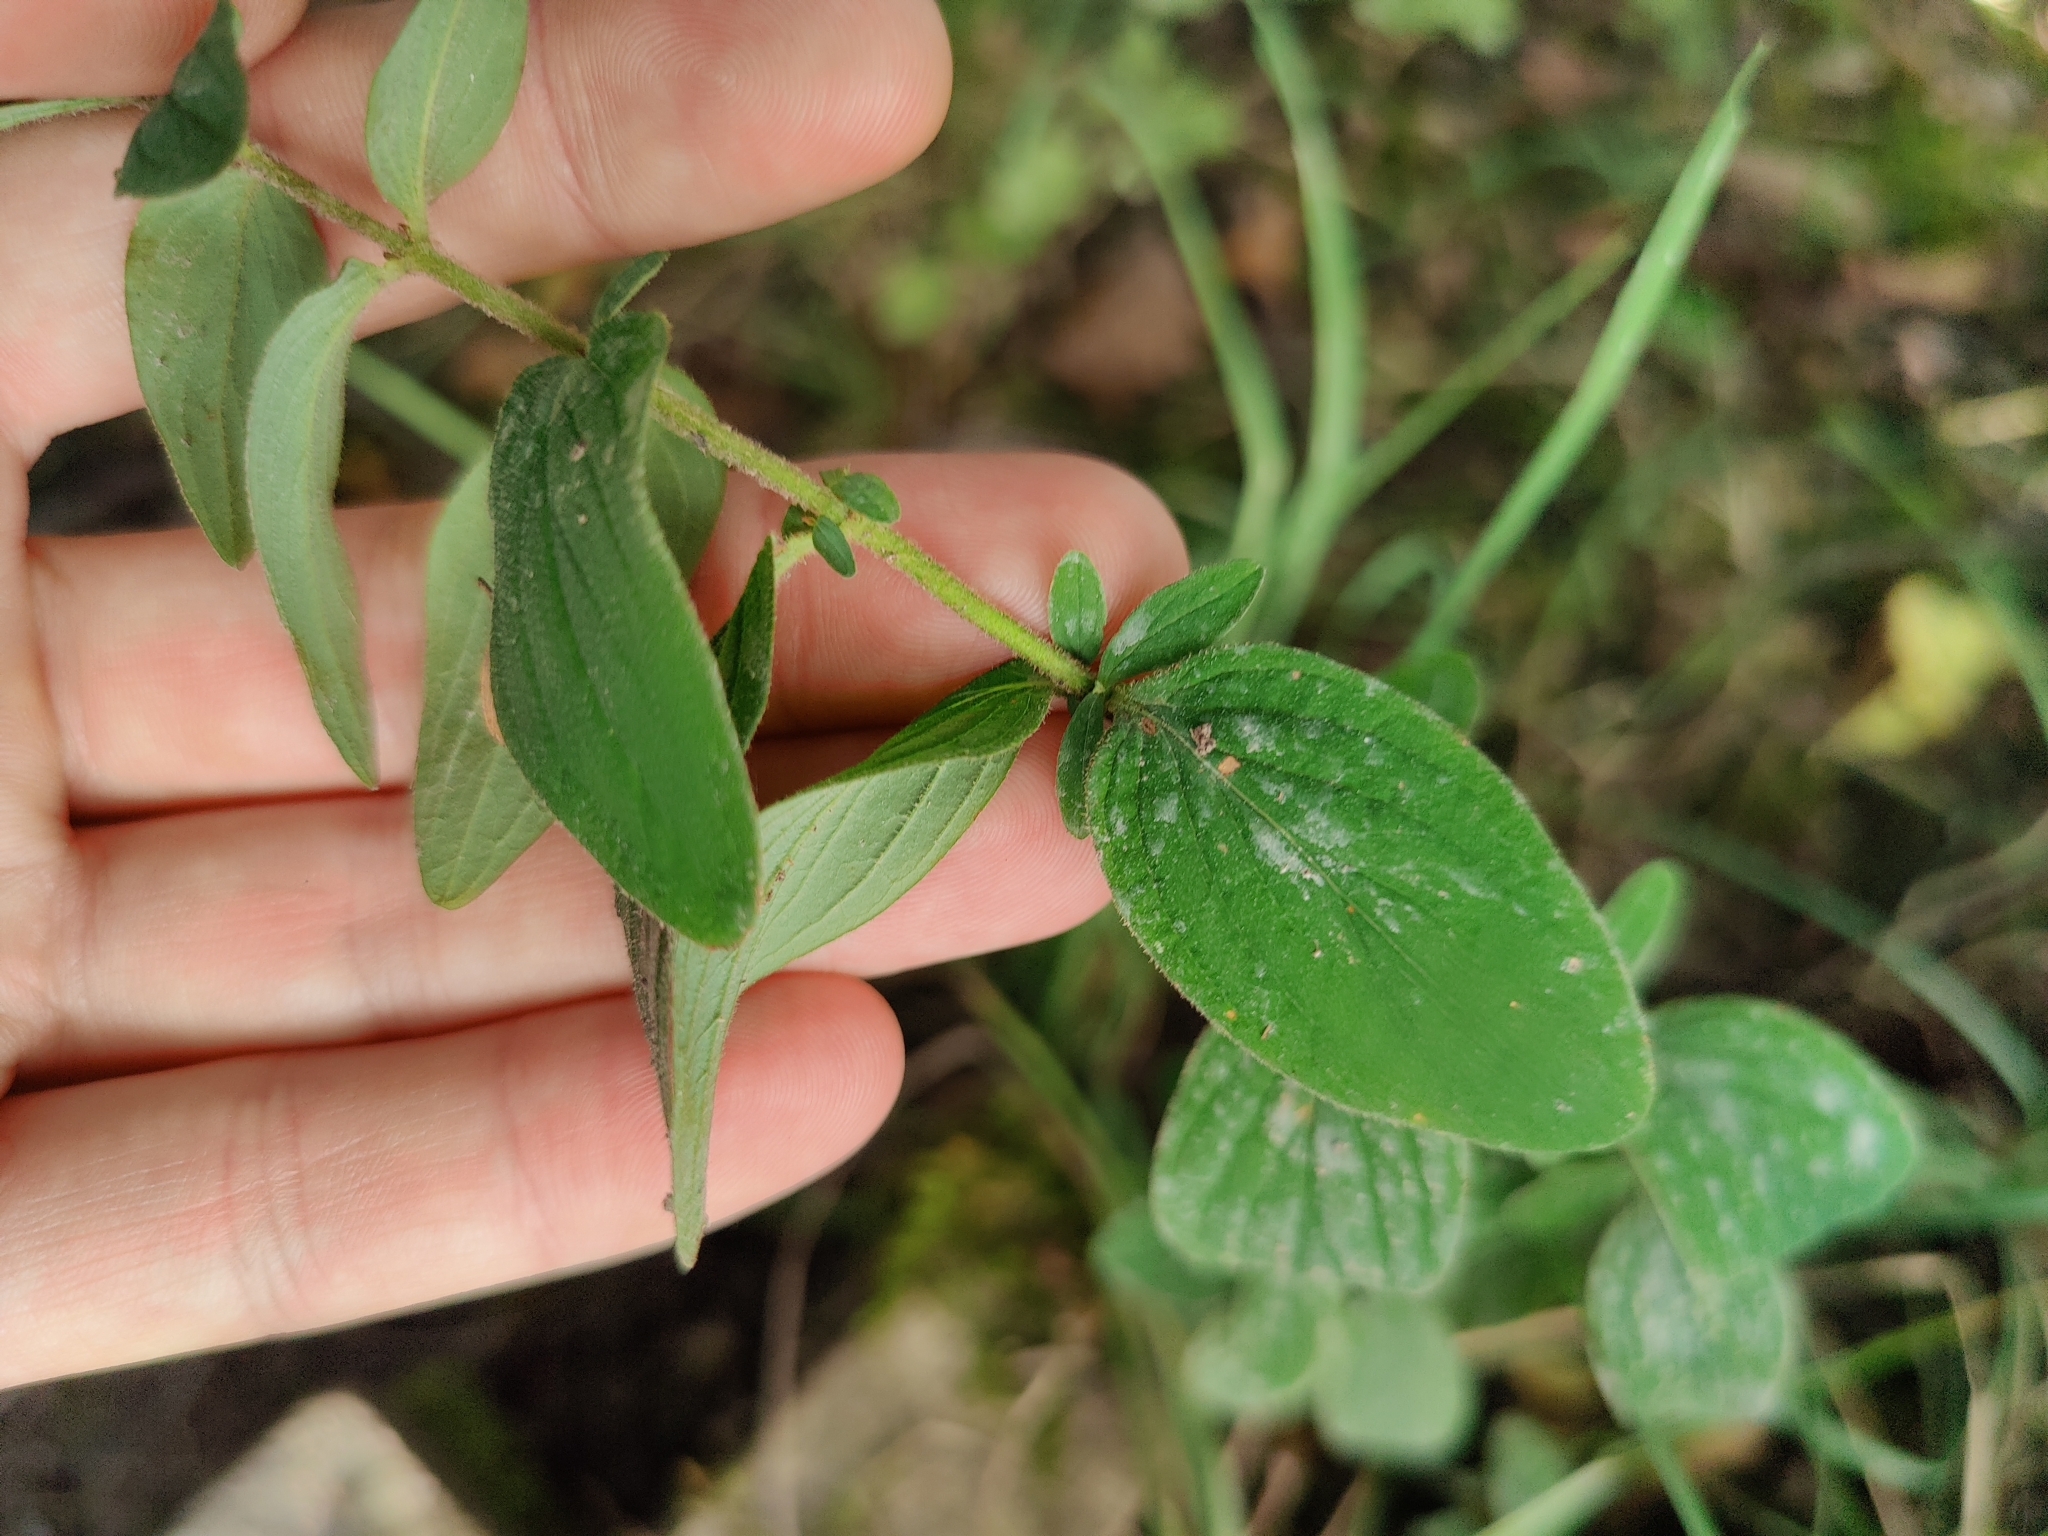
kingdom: Plantae
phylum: Tracheophyta
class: Magnoliopsida
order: Malpighiales
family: Hypericaceae
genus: Hypericum
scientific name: Hypericum hirsutum
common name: Hairy st. john's-wort
